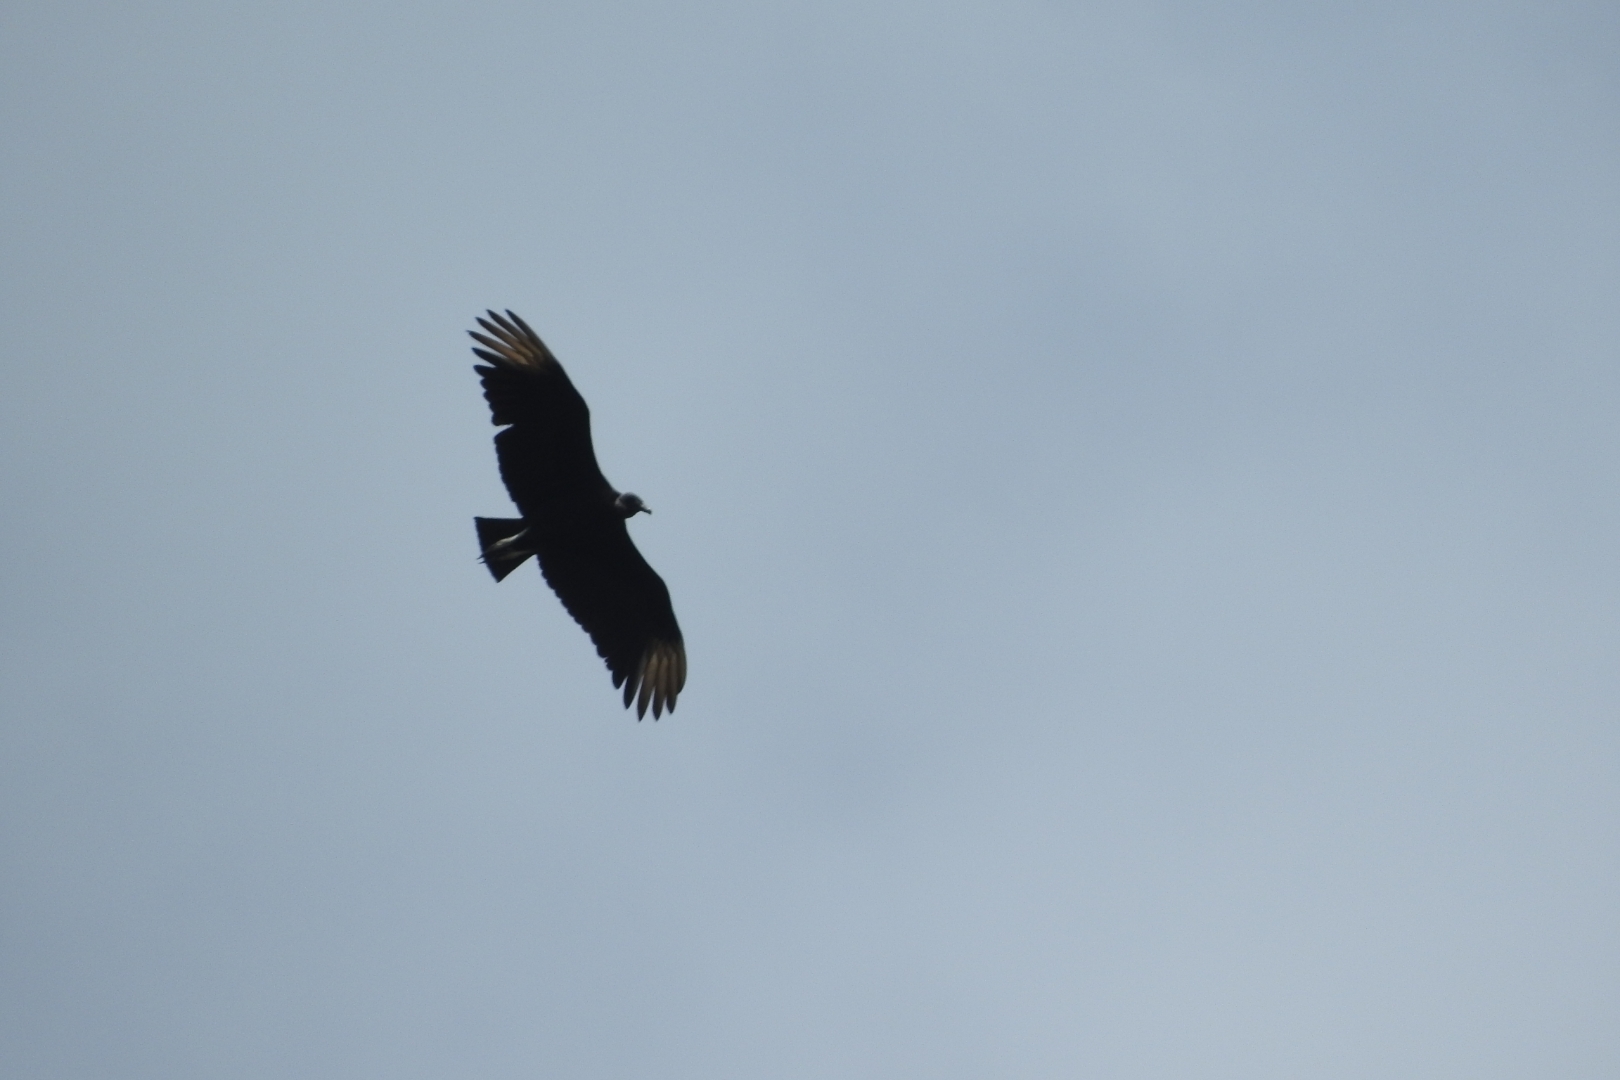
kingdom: Animalia
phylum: Chordata
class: Aves
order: Accipitriformes
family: Cathartidae
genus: Coragyps
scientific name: Coragyps atratus
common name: Black vulture
